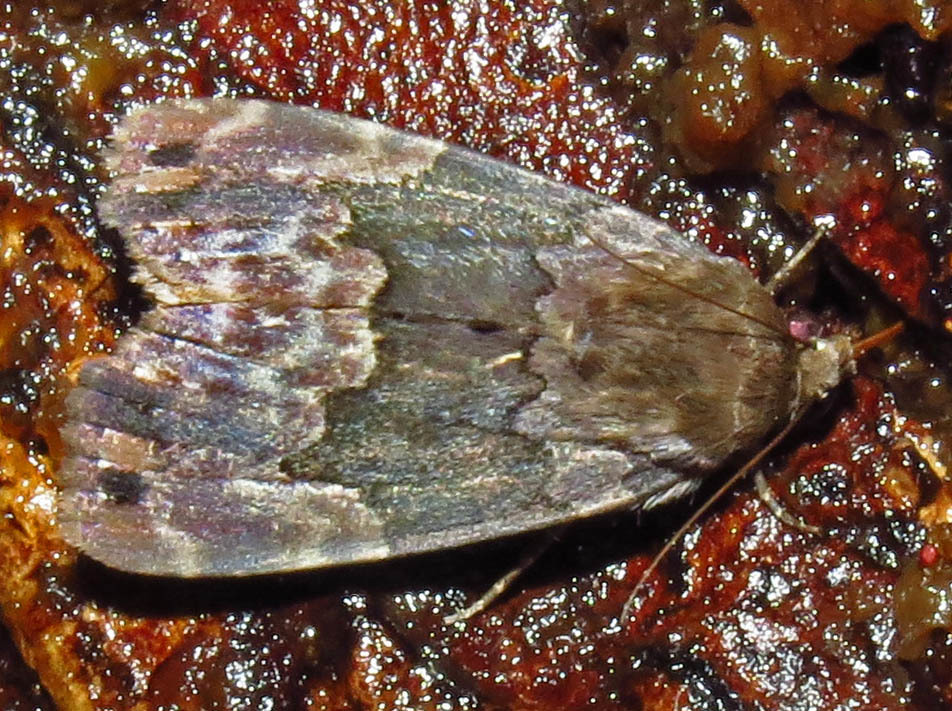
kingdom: Animalia
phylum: Arthropoda
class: Insecta
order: Lepidoptera
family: Erebidae
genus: Dinumma
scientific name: Dinumma deponens
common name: Purplish moth
